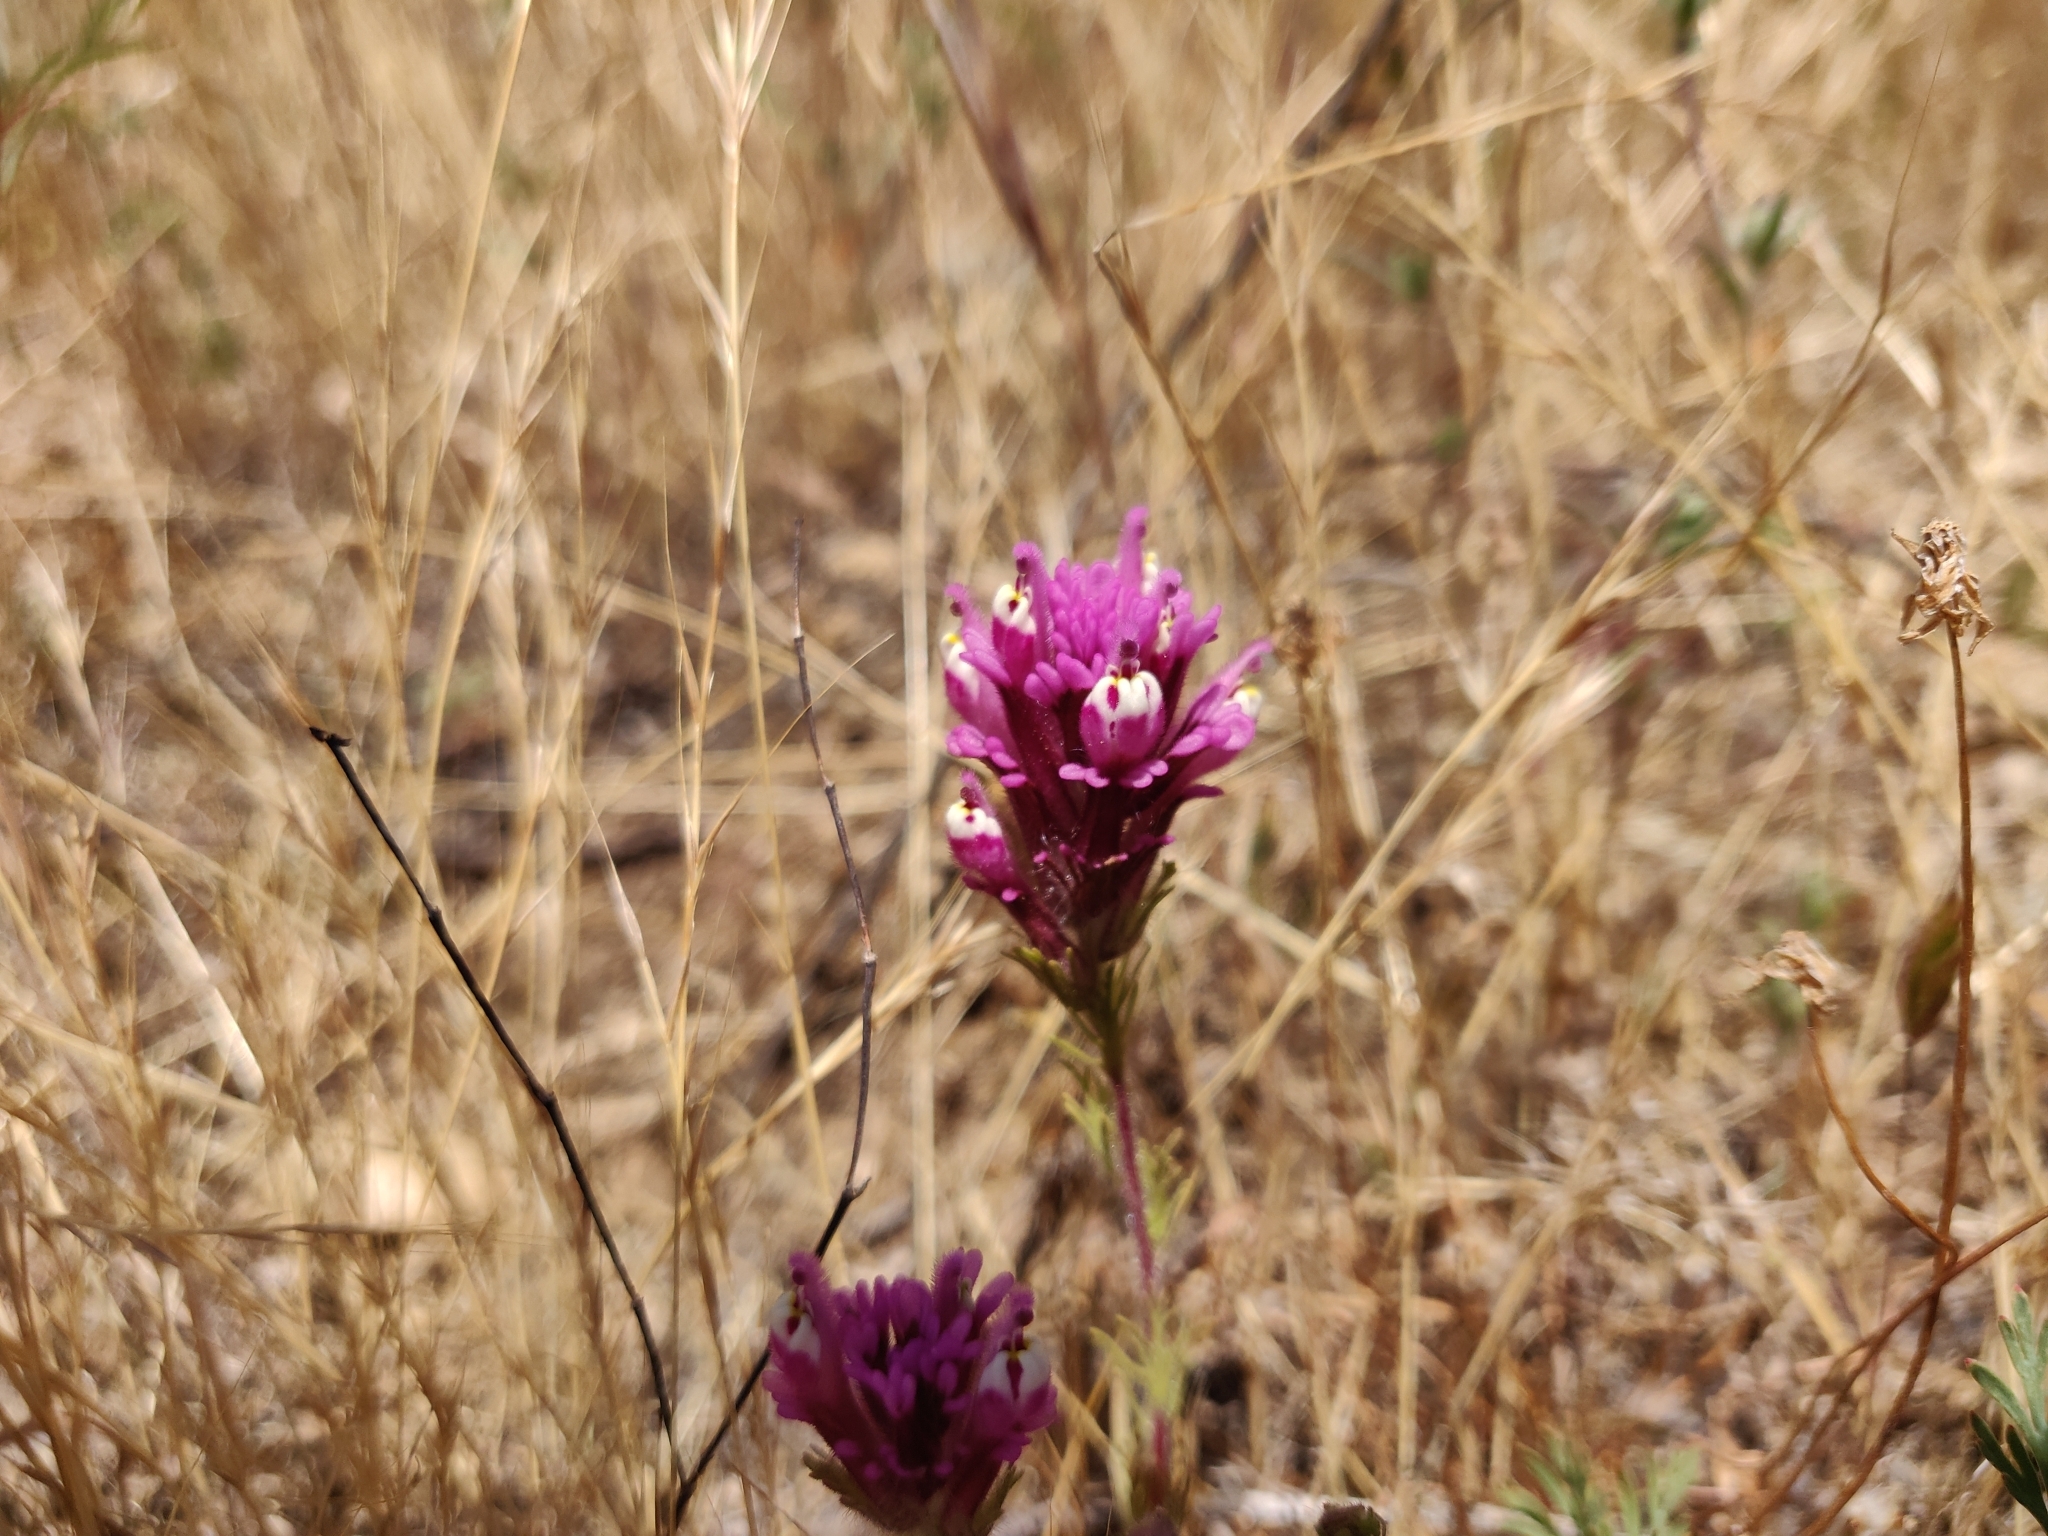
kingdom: Plantae
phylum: Tracheophyta
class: Magnoliopsida
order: Lamiales
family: Orobanchaceae
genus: Castilleja
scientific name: Castilleja exserta
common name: Purple owl-clover
